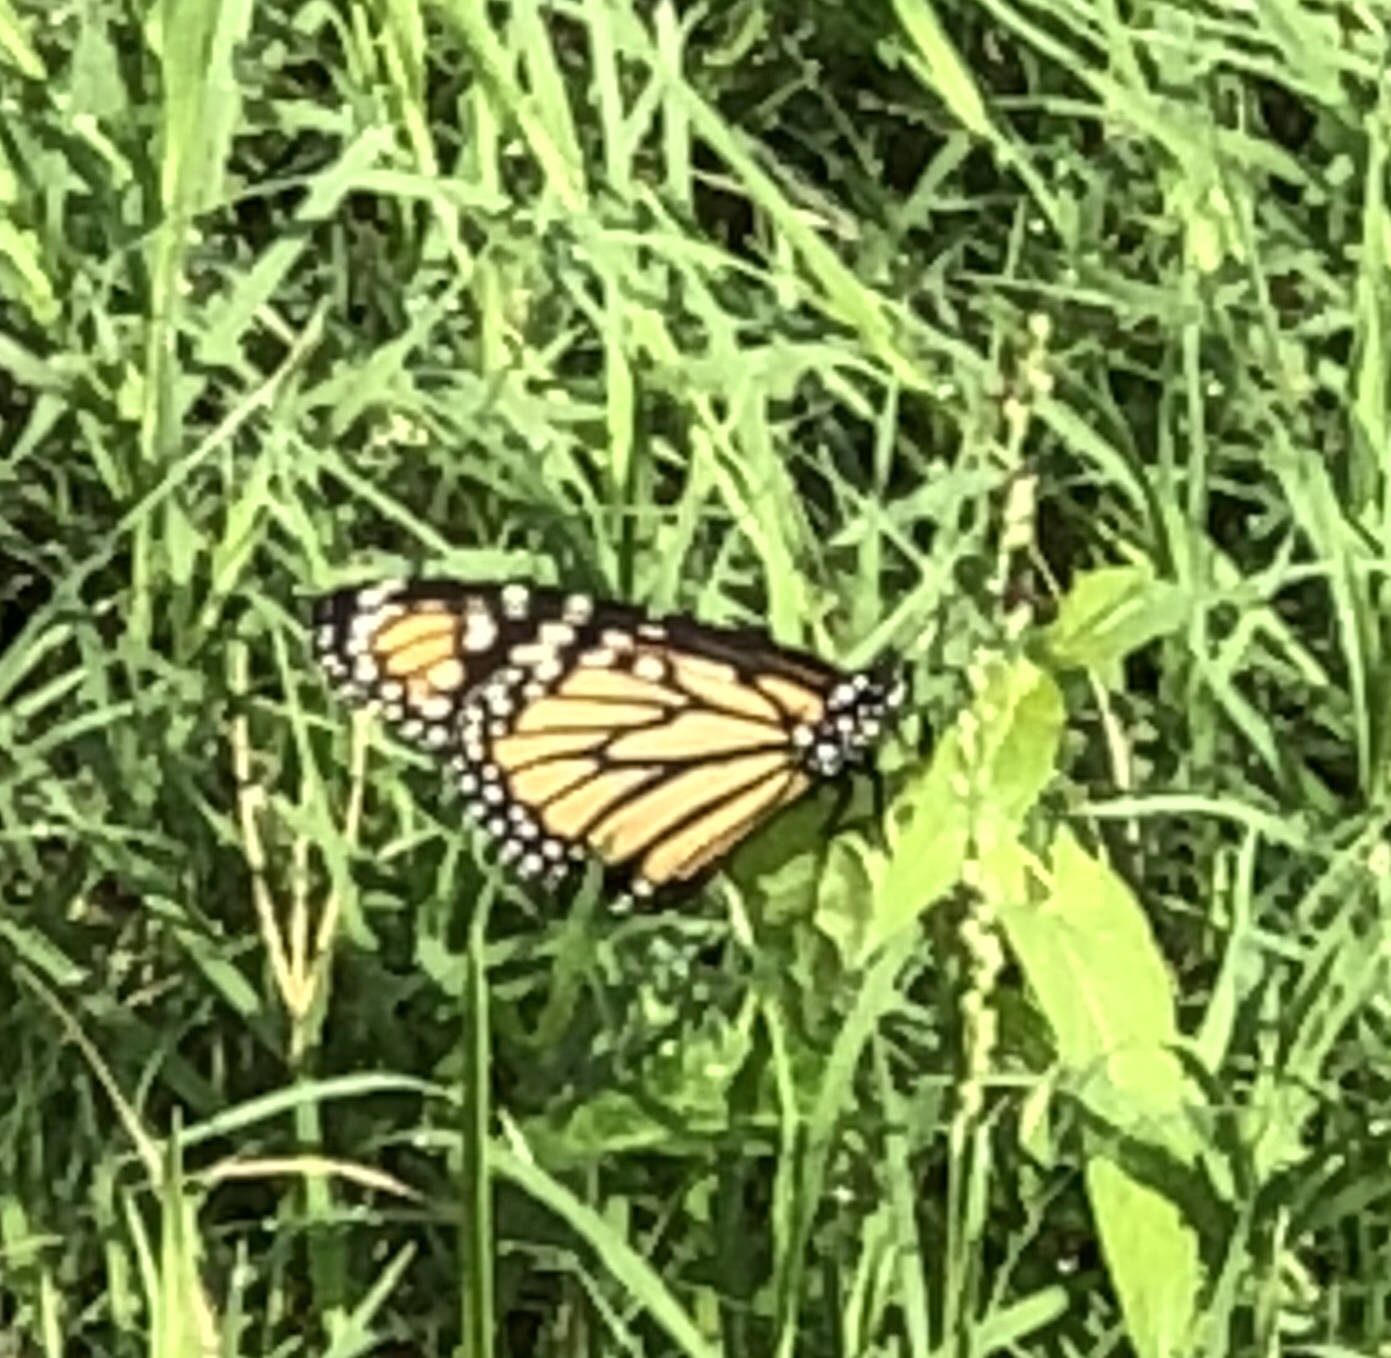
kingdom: Animalia
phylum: Arthropoda
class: Insecta
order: Lepidoptera
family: Nymphalidae
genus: Danaus
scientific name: Danaus plexippus
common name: Monarch
